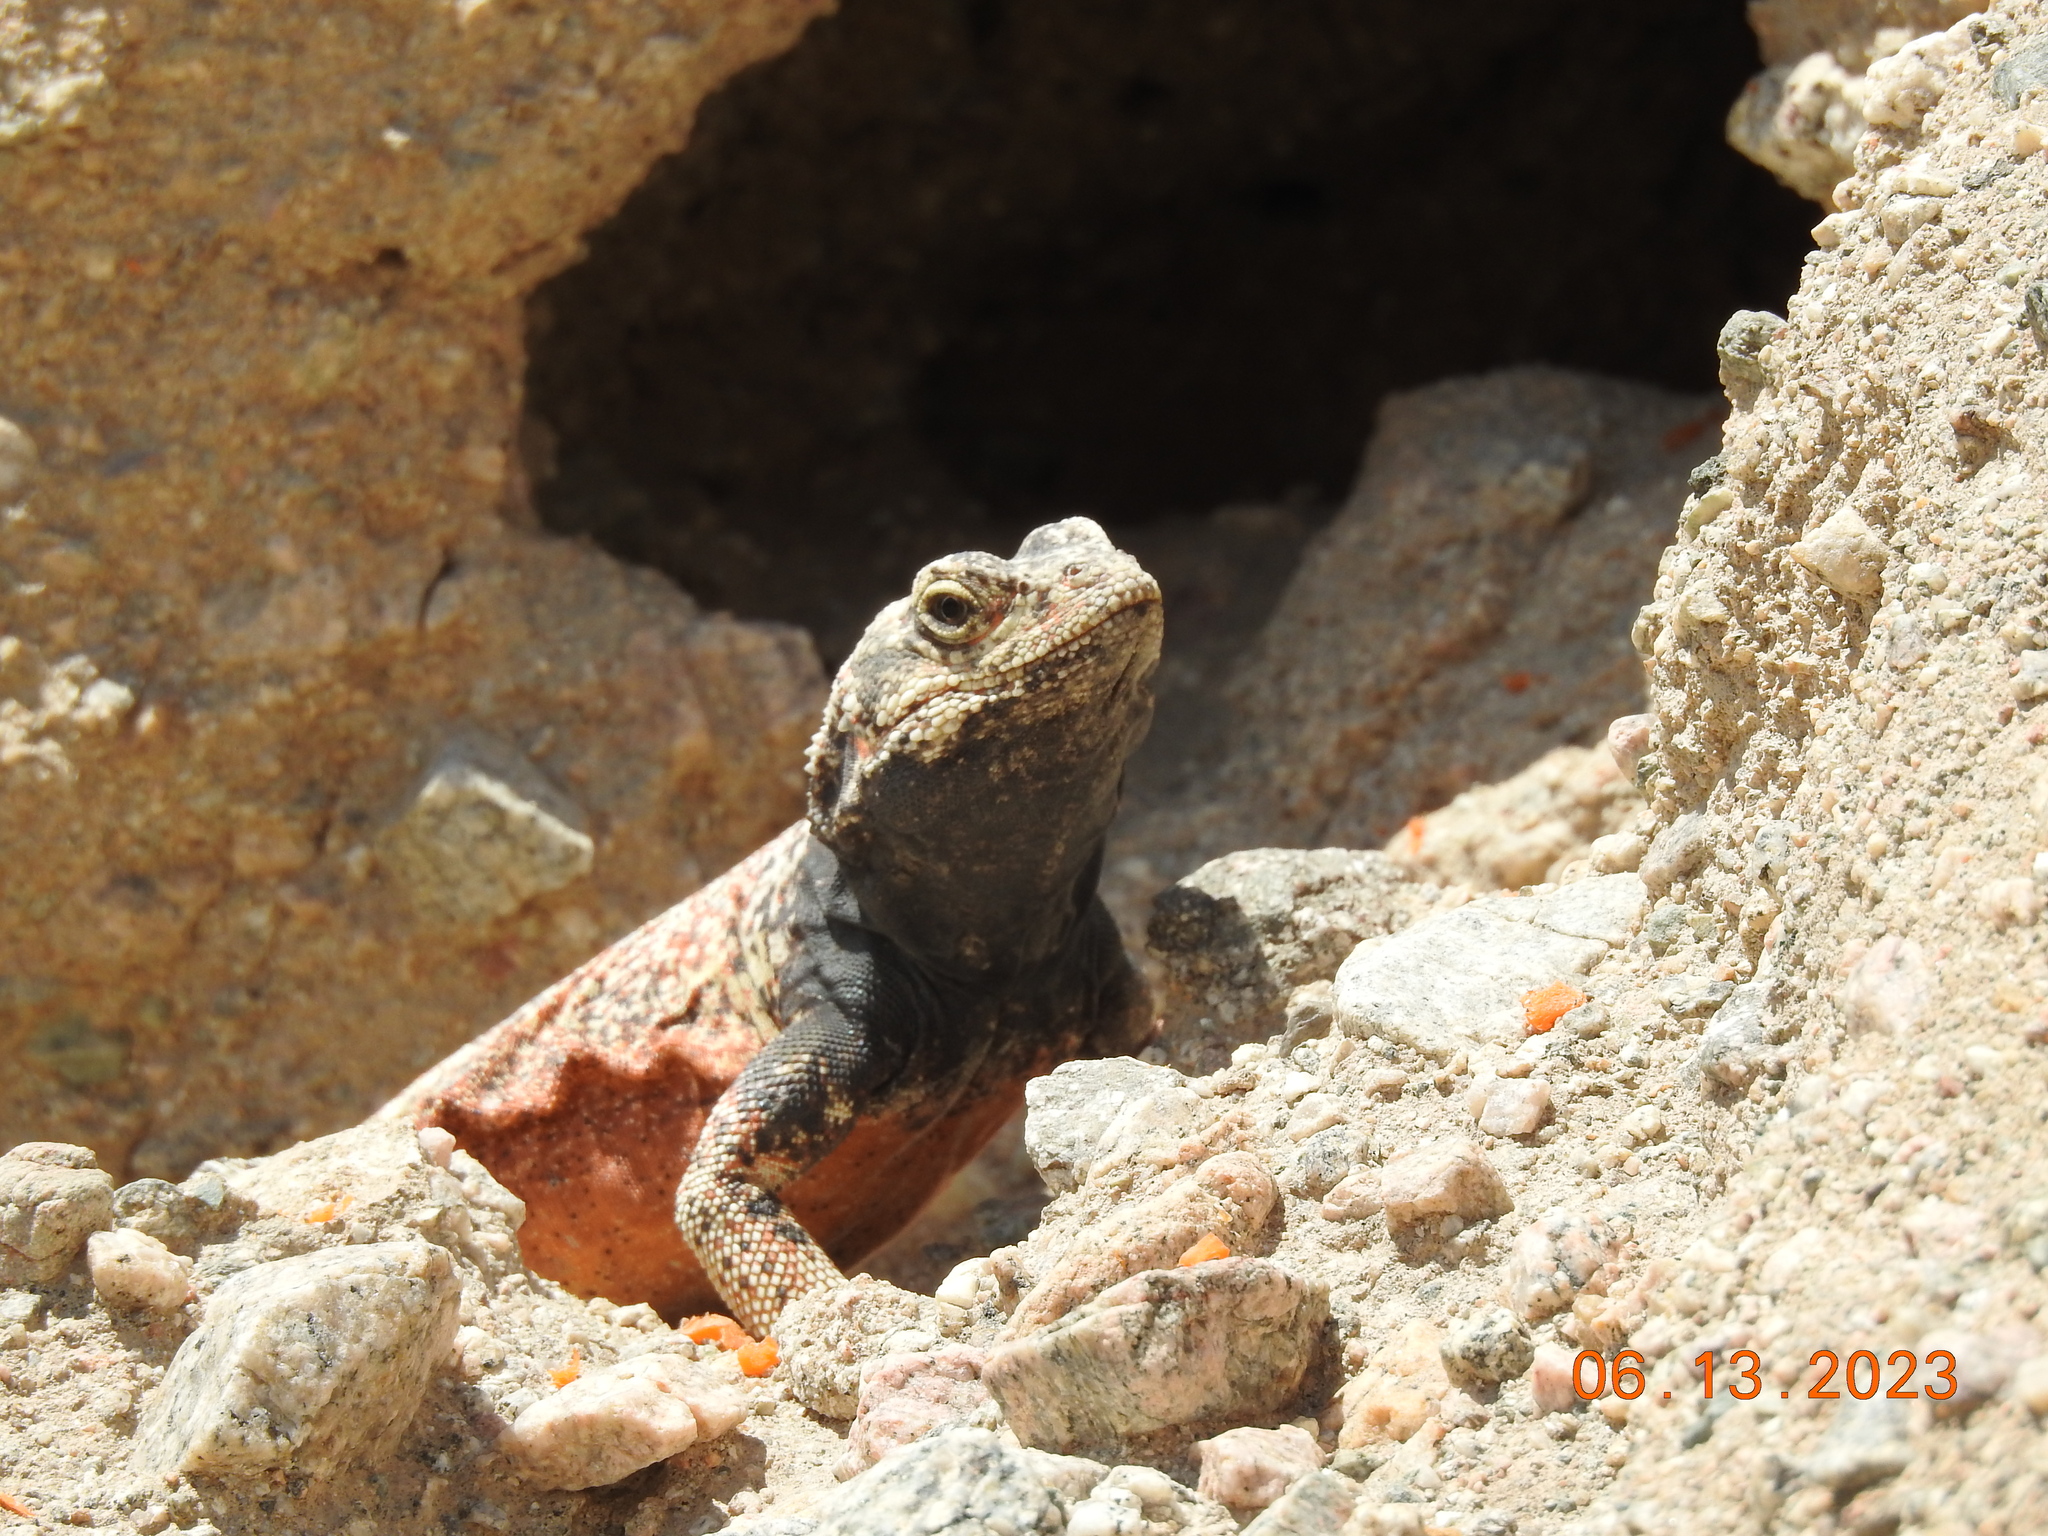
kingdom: Animalia
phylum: Chordata
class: Squamata
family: Iguanidae
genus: Sauromalus
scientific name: Sauromalus ater
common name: Northern chuckwalla
